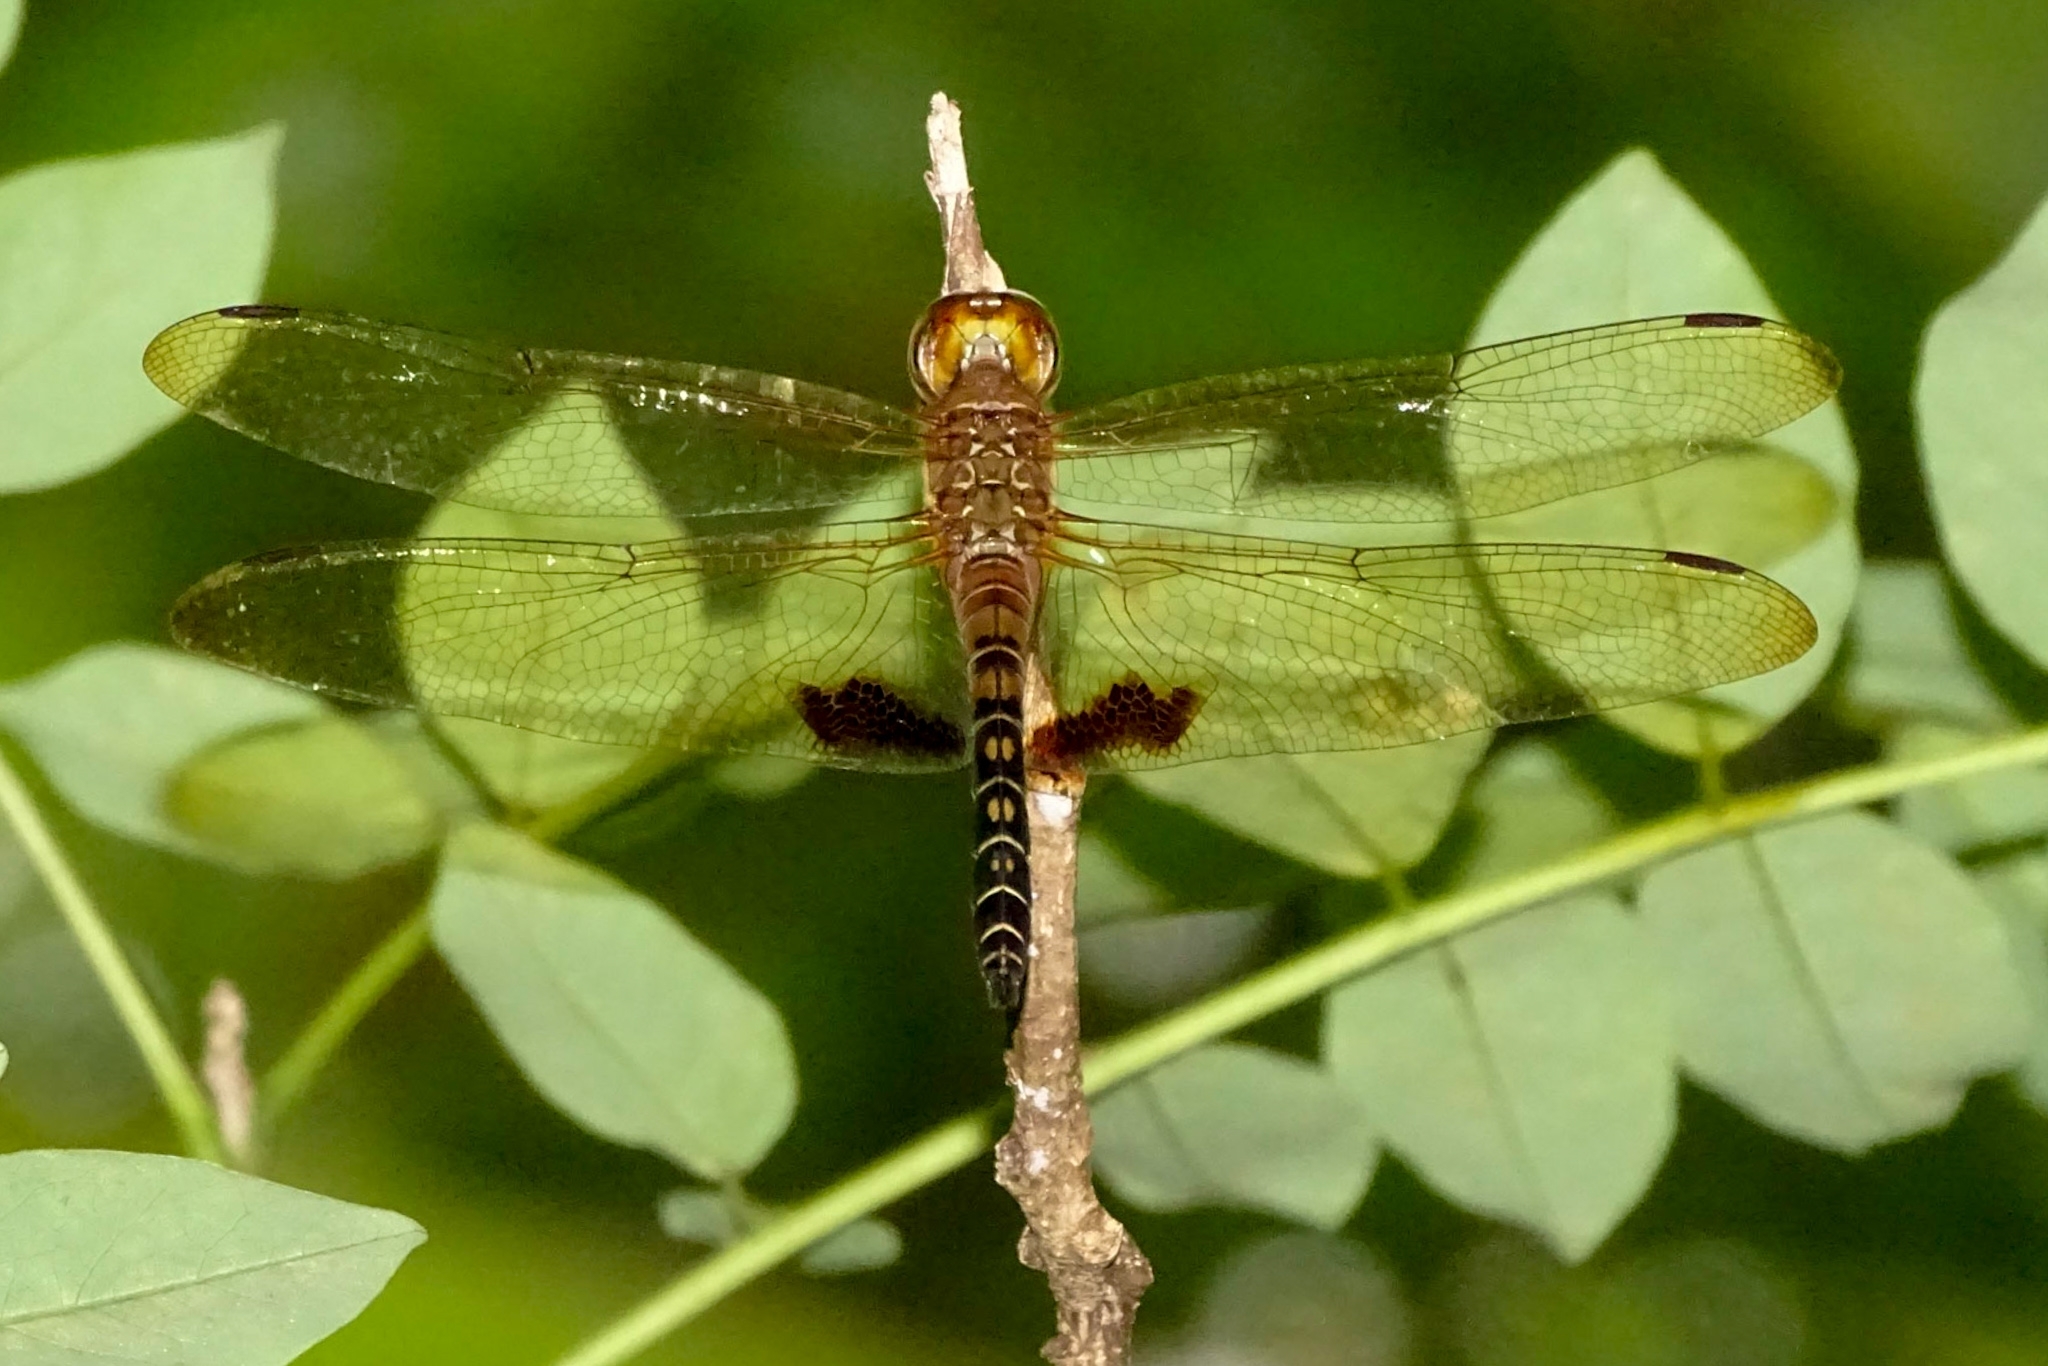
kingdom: Animalia
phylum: Arthropoda
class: Insecta
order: Odonata
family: Libellulidae
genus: Hydrobasileus
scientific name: Hydrobasileus croceus
